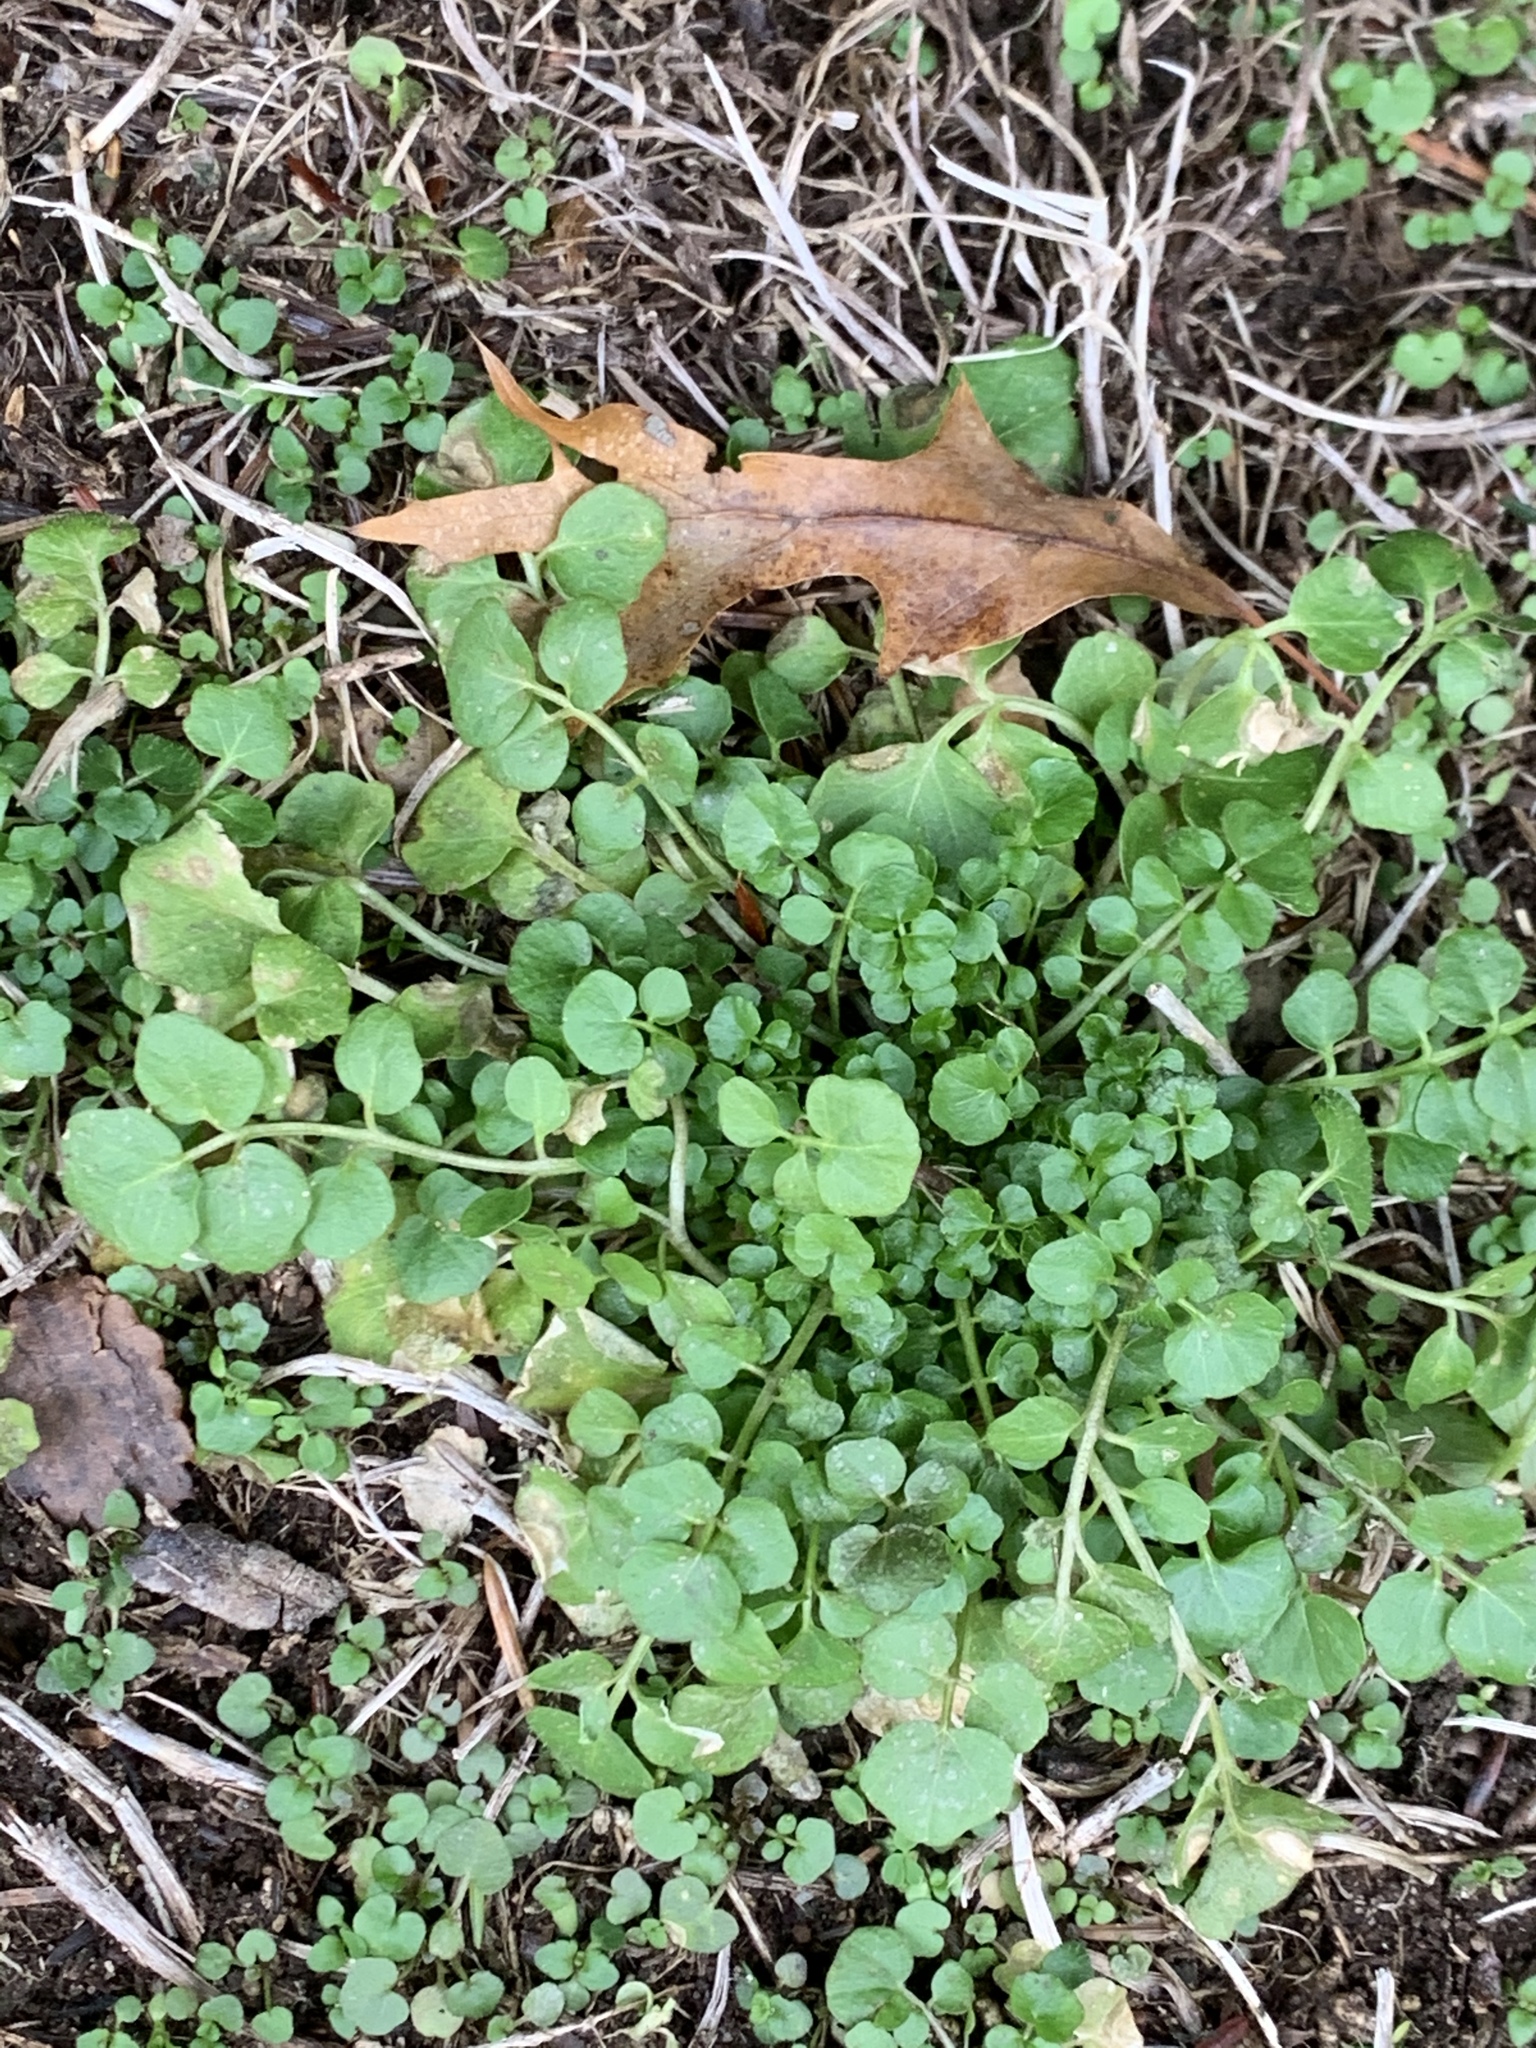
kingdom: Plantae
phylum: Tracheophyta
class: Magnoliopsida
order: Brassicales
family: Brassicaceae
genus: Cardamine
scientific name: Cardamine hirsuta
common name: Hairy bittercress
